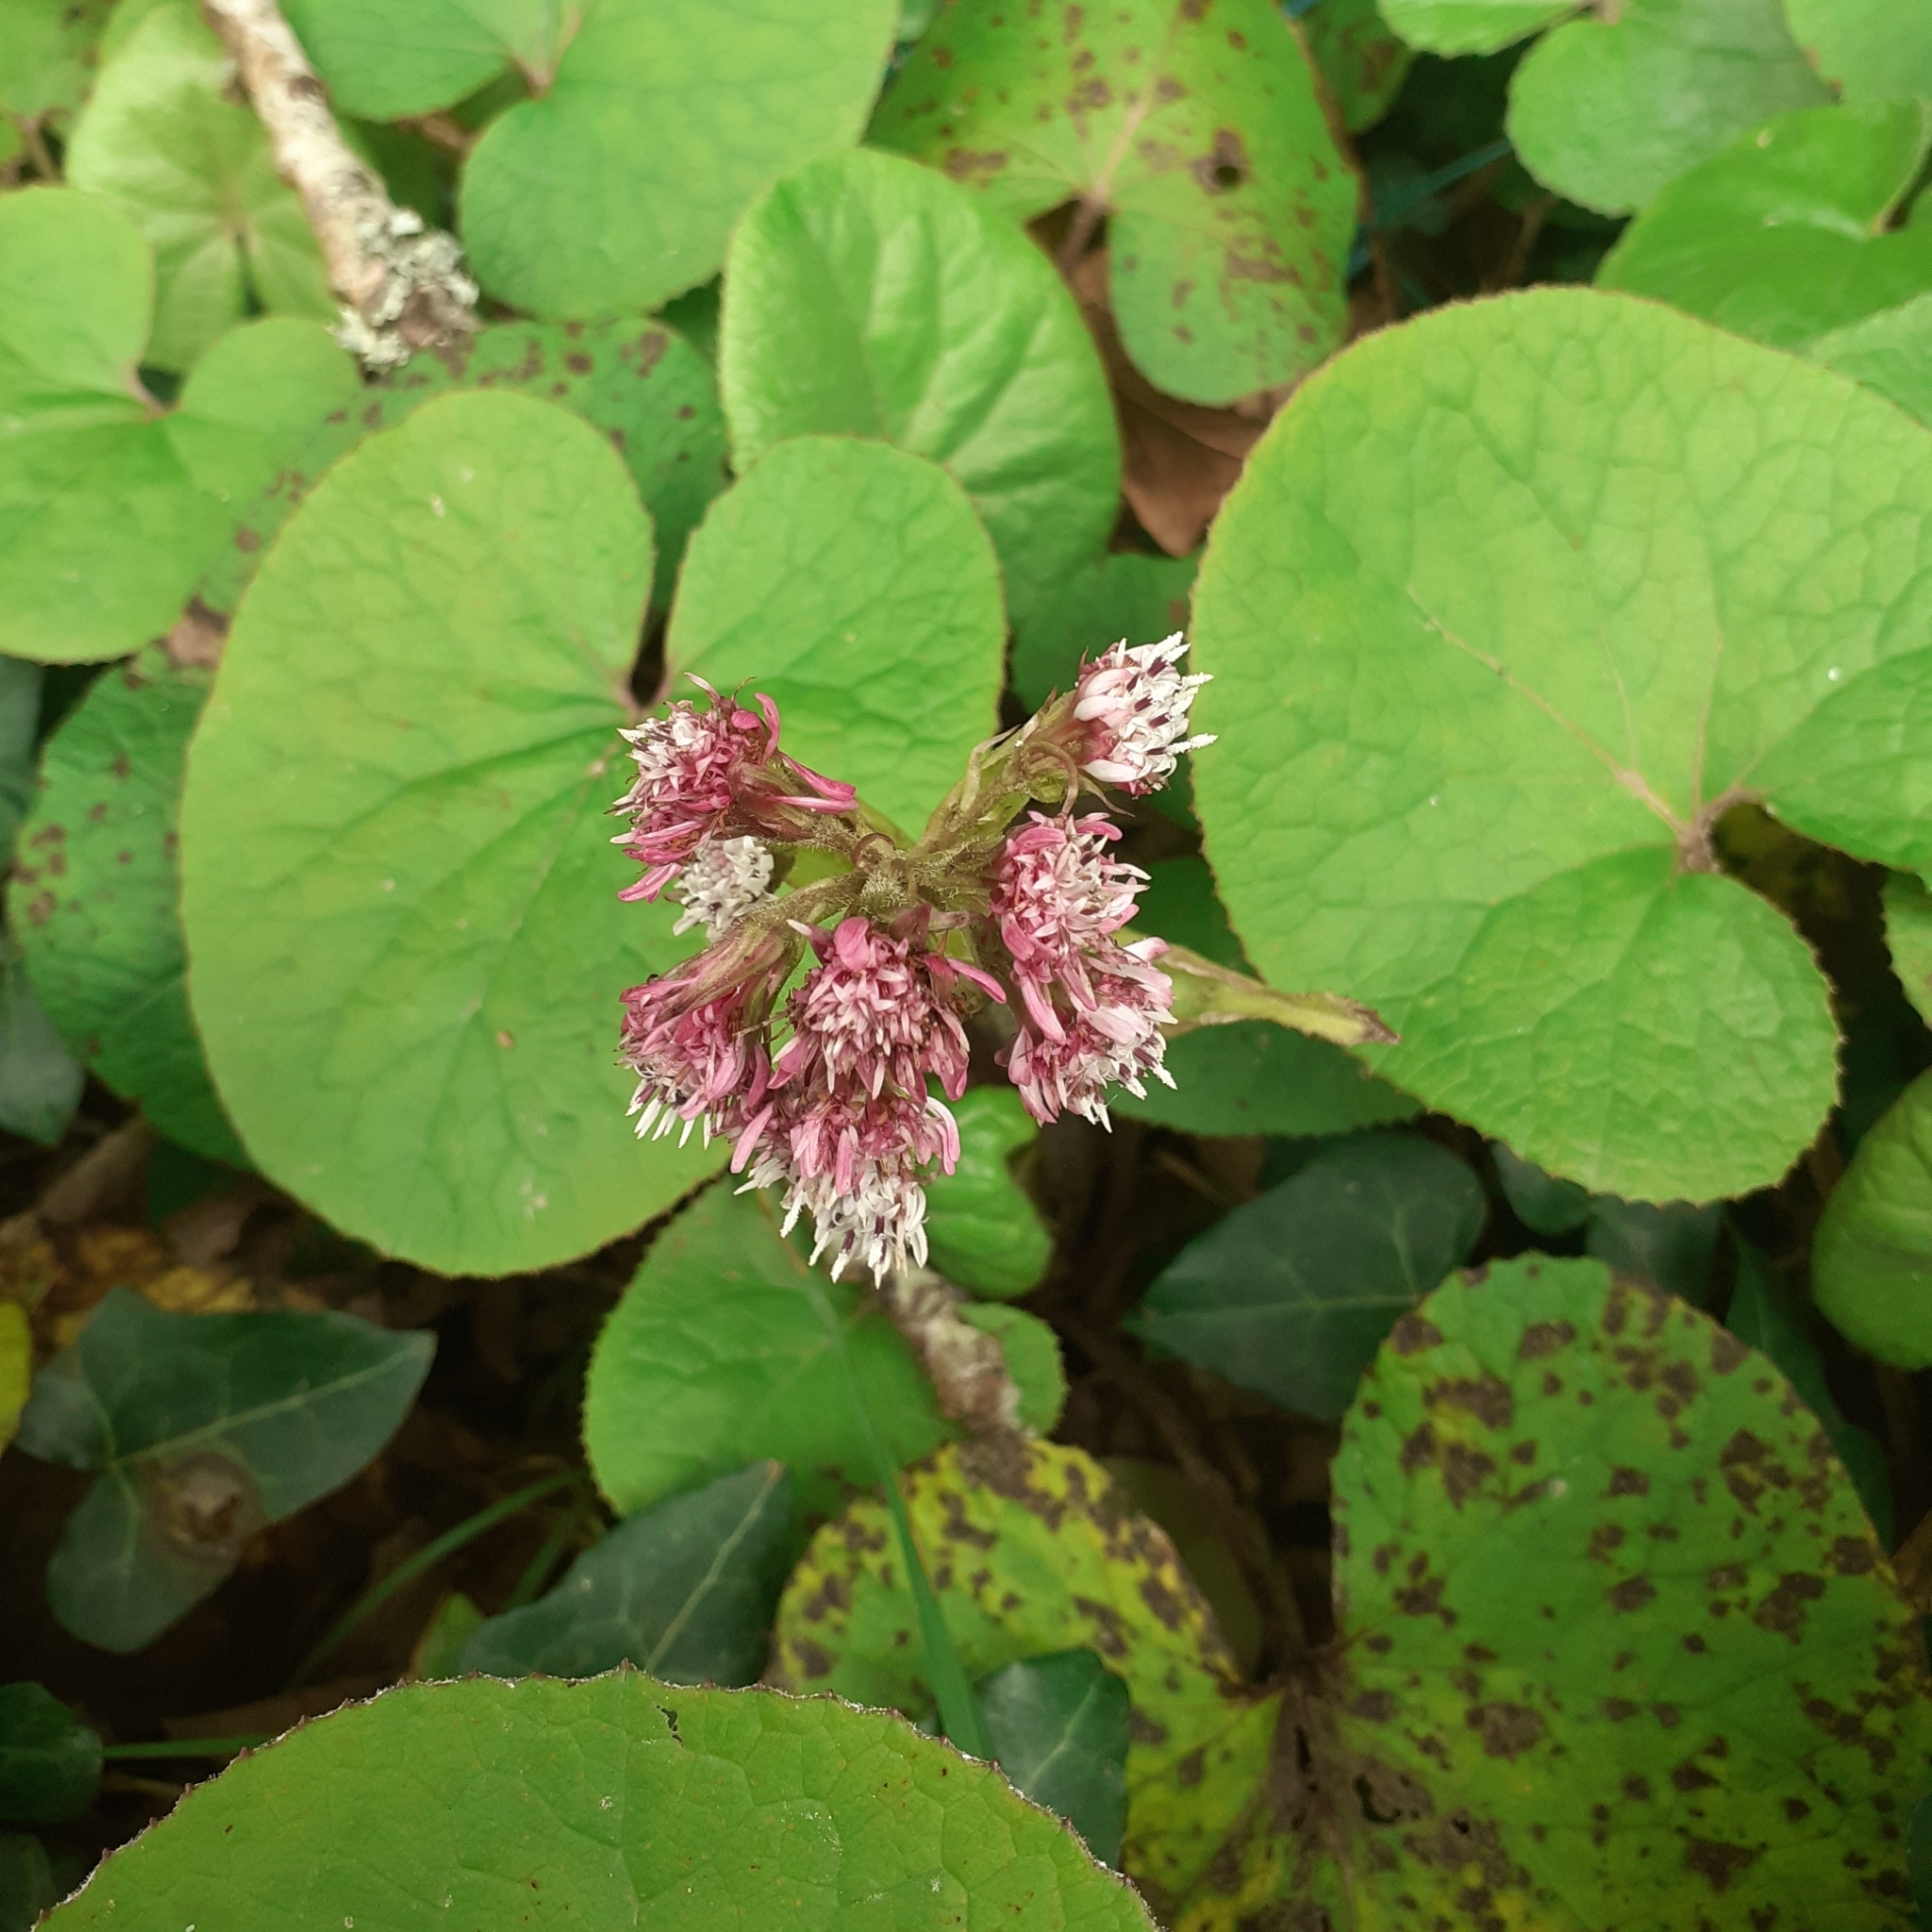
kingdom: Plantae
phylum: Tracheophyta
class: Magnoliopsida
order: Asterales
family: Asteraceae
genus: Petasites
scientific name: Petasites pyrenaicus
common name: Winter heliotrope
